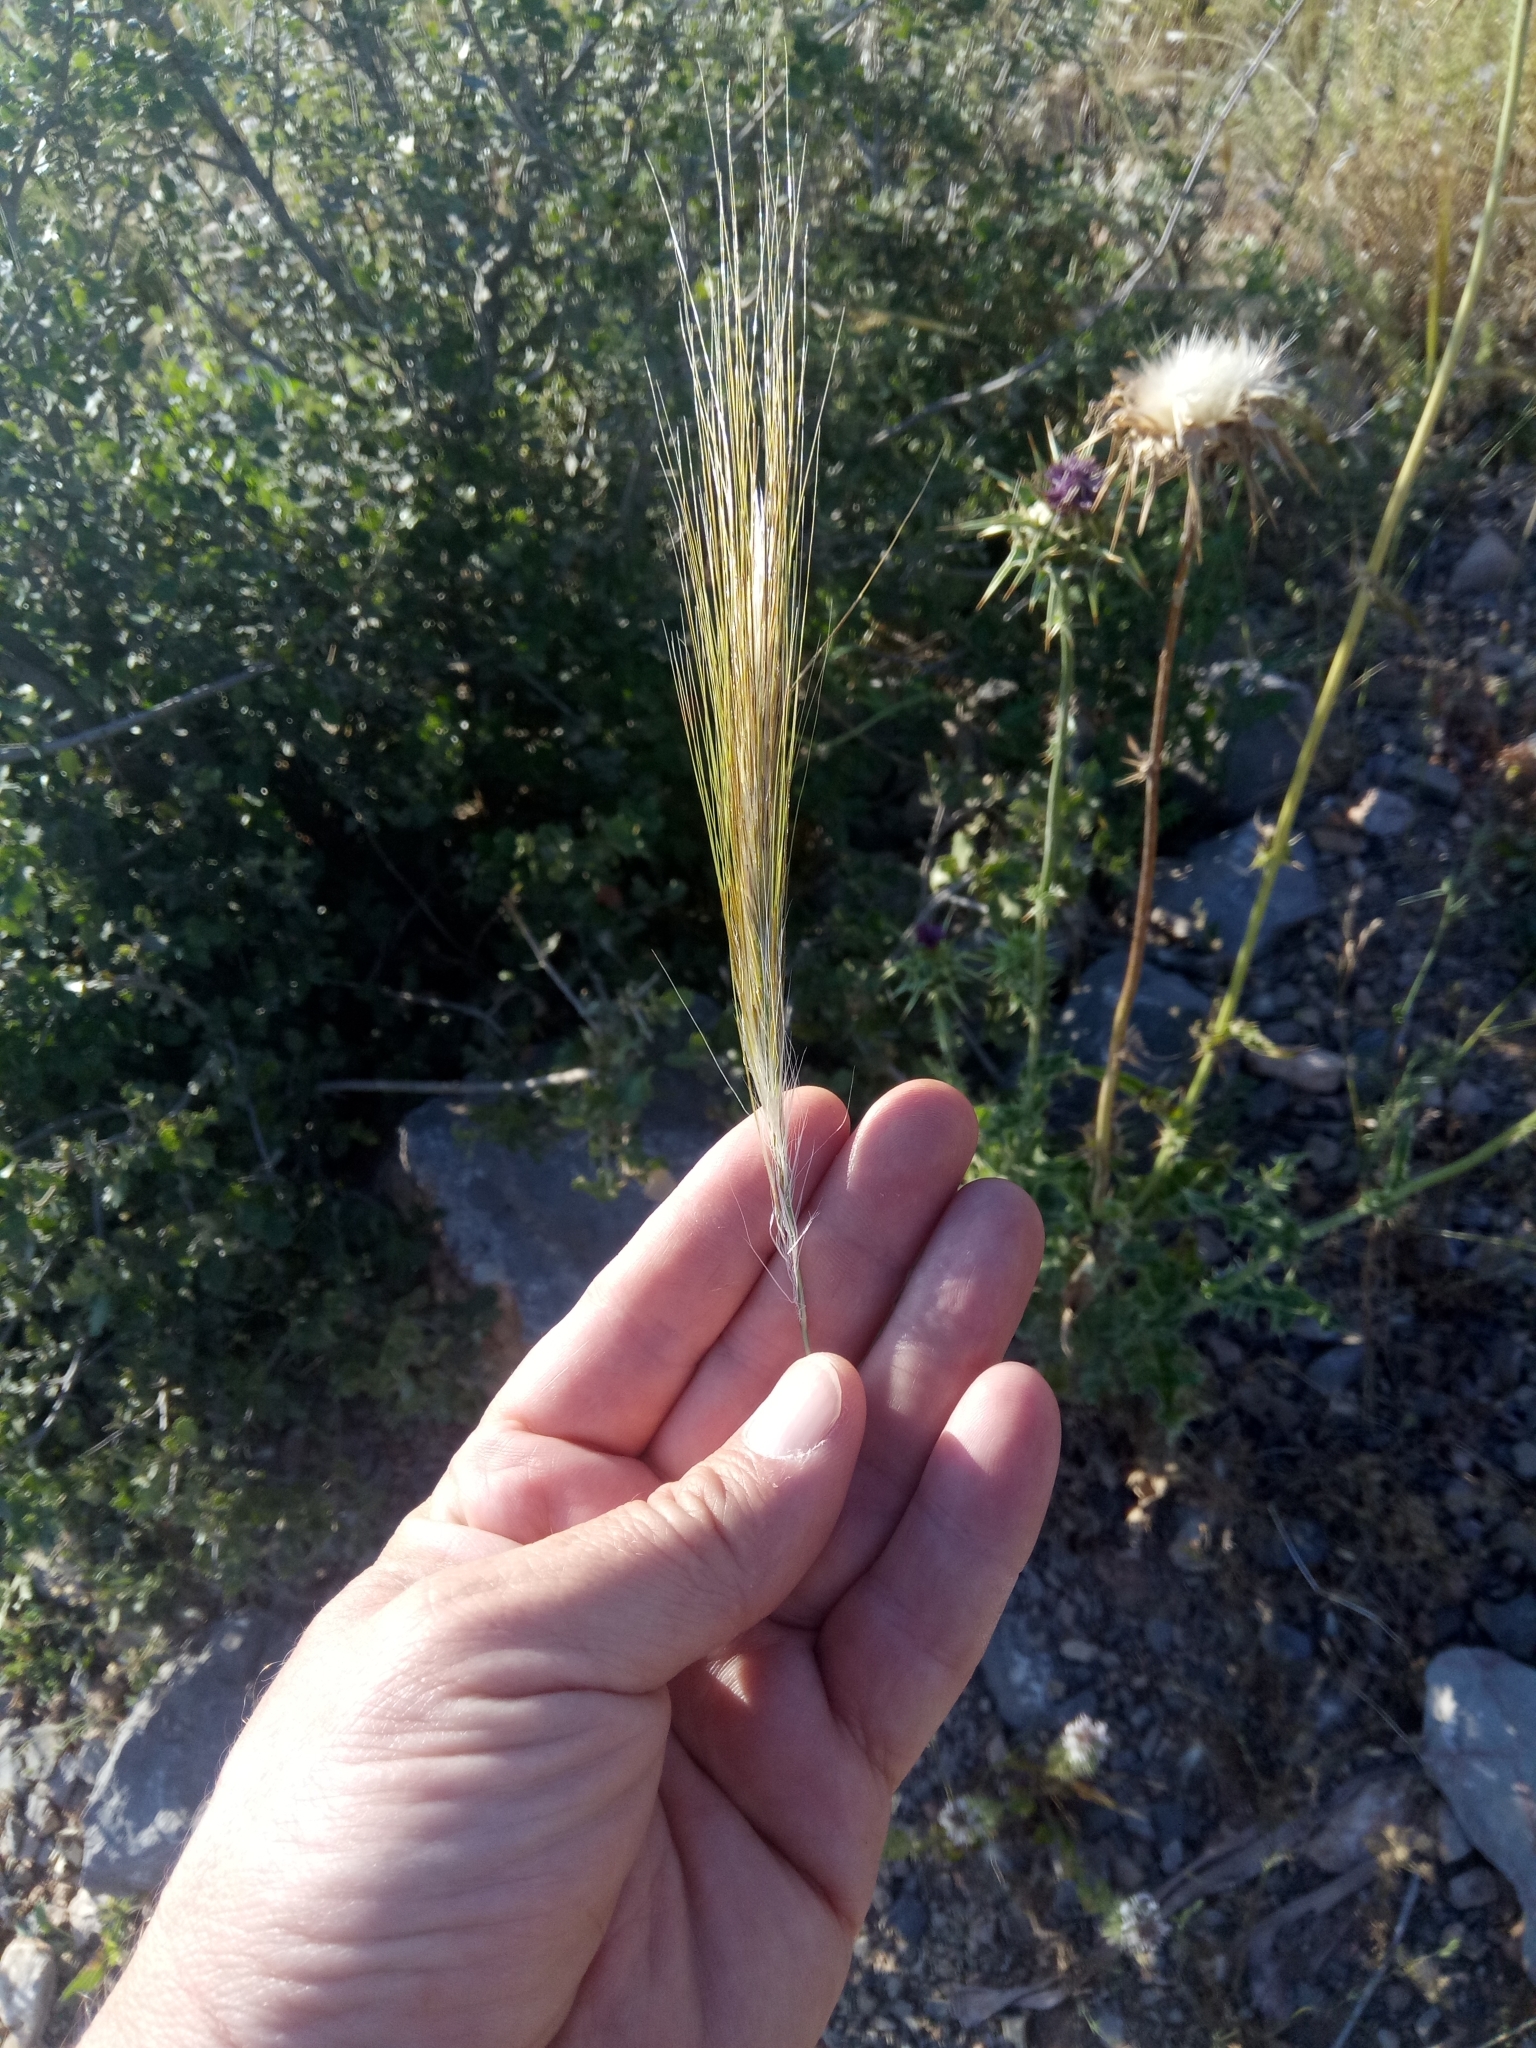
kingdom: Plantae
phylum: Tracheophyta
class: Liliopsida
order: Poales
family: Poaceae
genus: Stipellula
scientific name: Stipellula capensis
